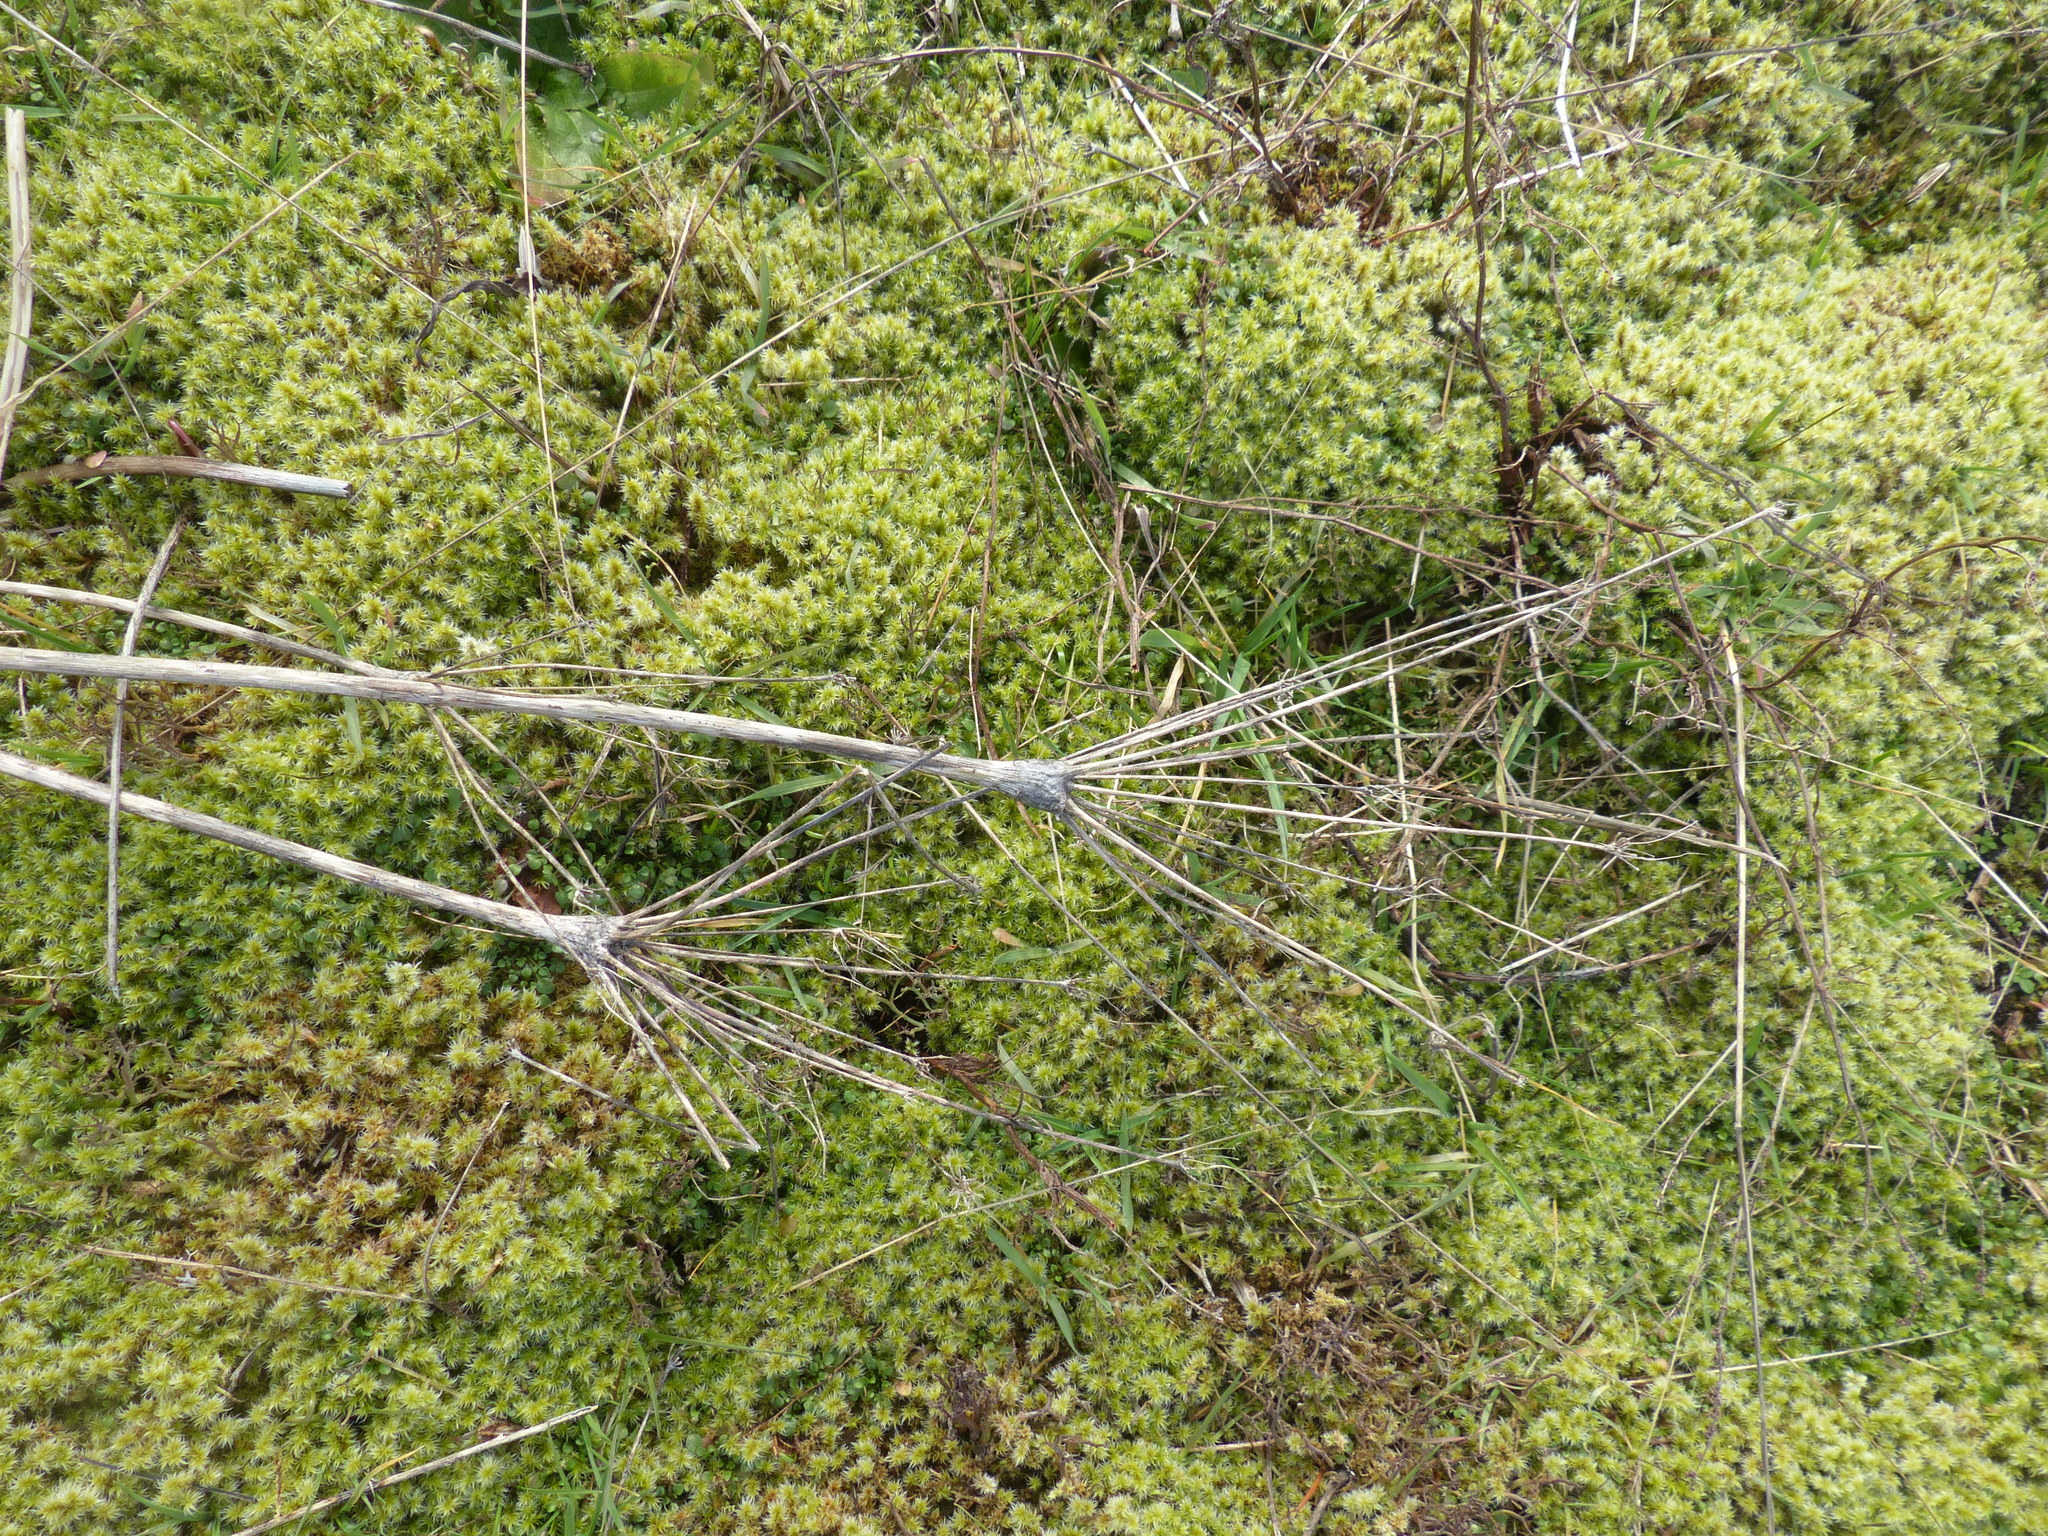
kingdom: Plantae
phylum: Tracheophyta
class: Magnoliopsida
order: Apiales
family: Apiaceae
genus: Lomatium
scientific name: Lomatium nudicaule
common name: Pestle lomatium
